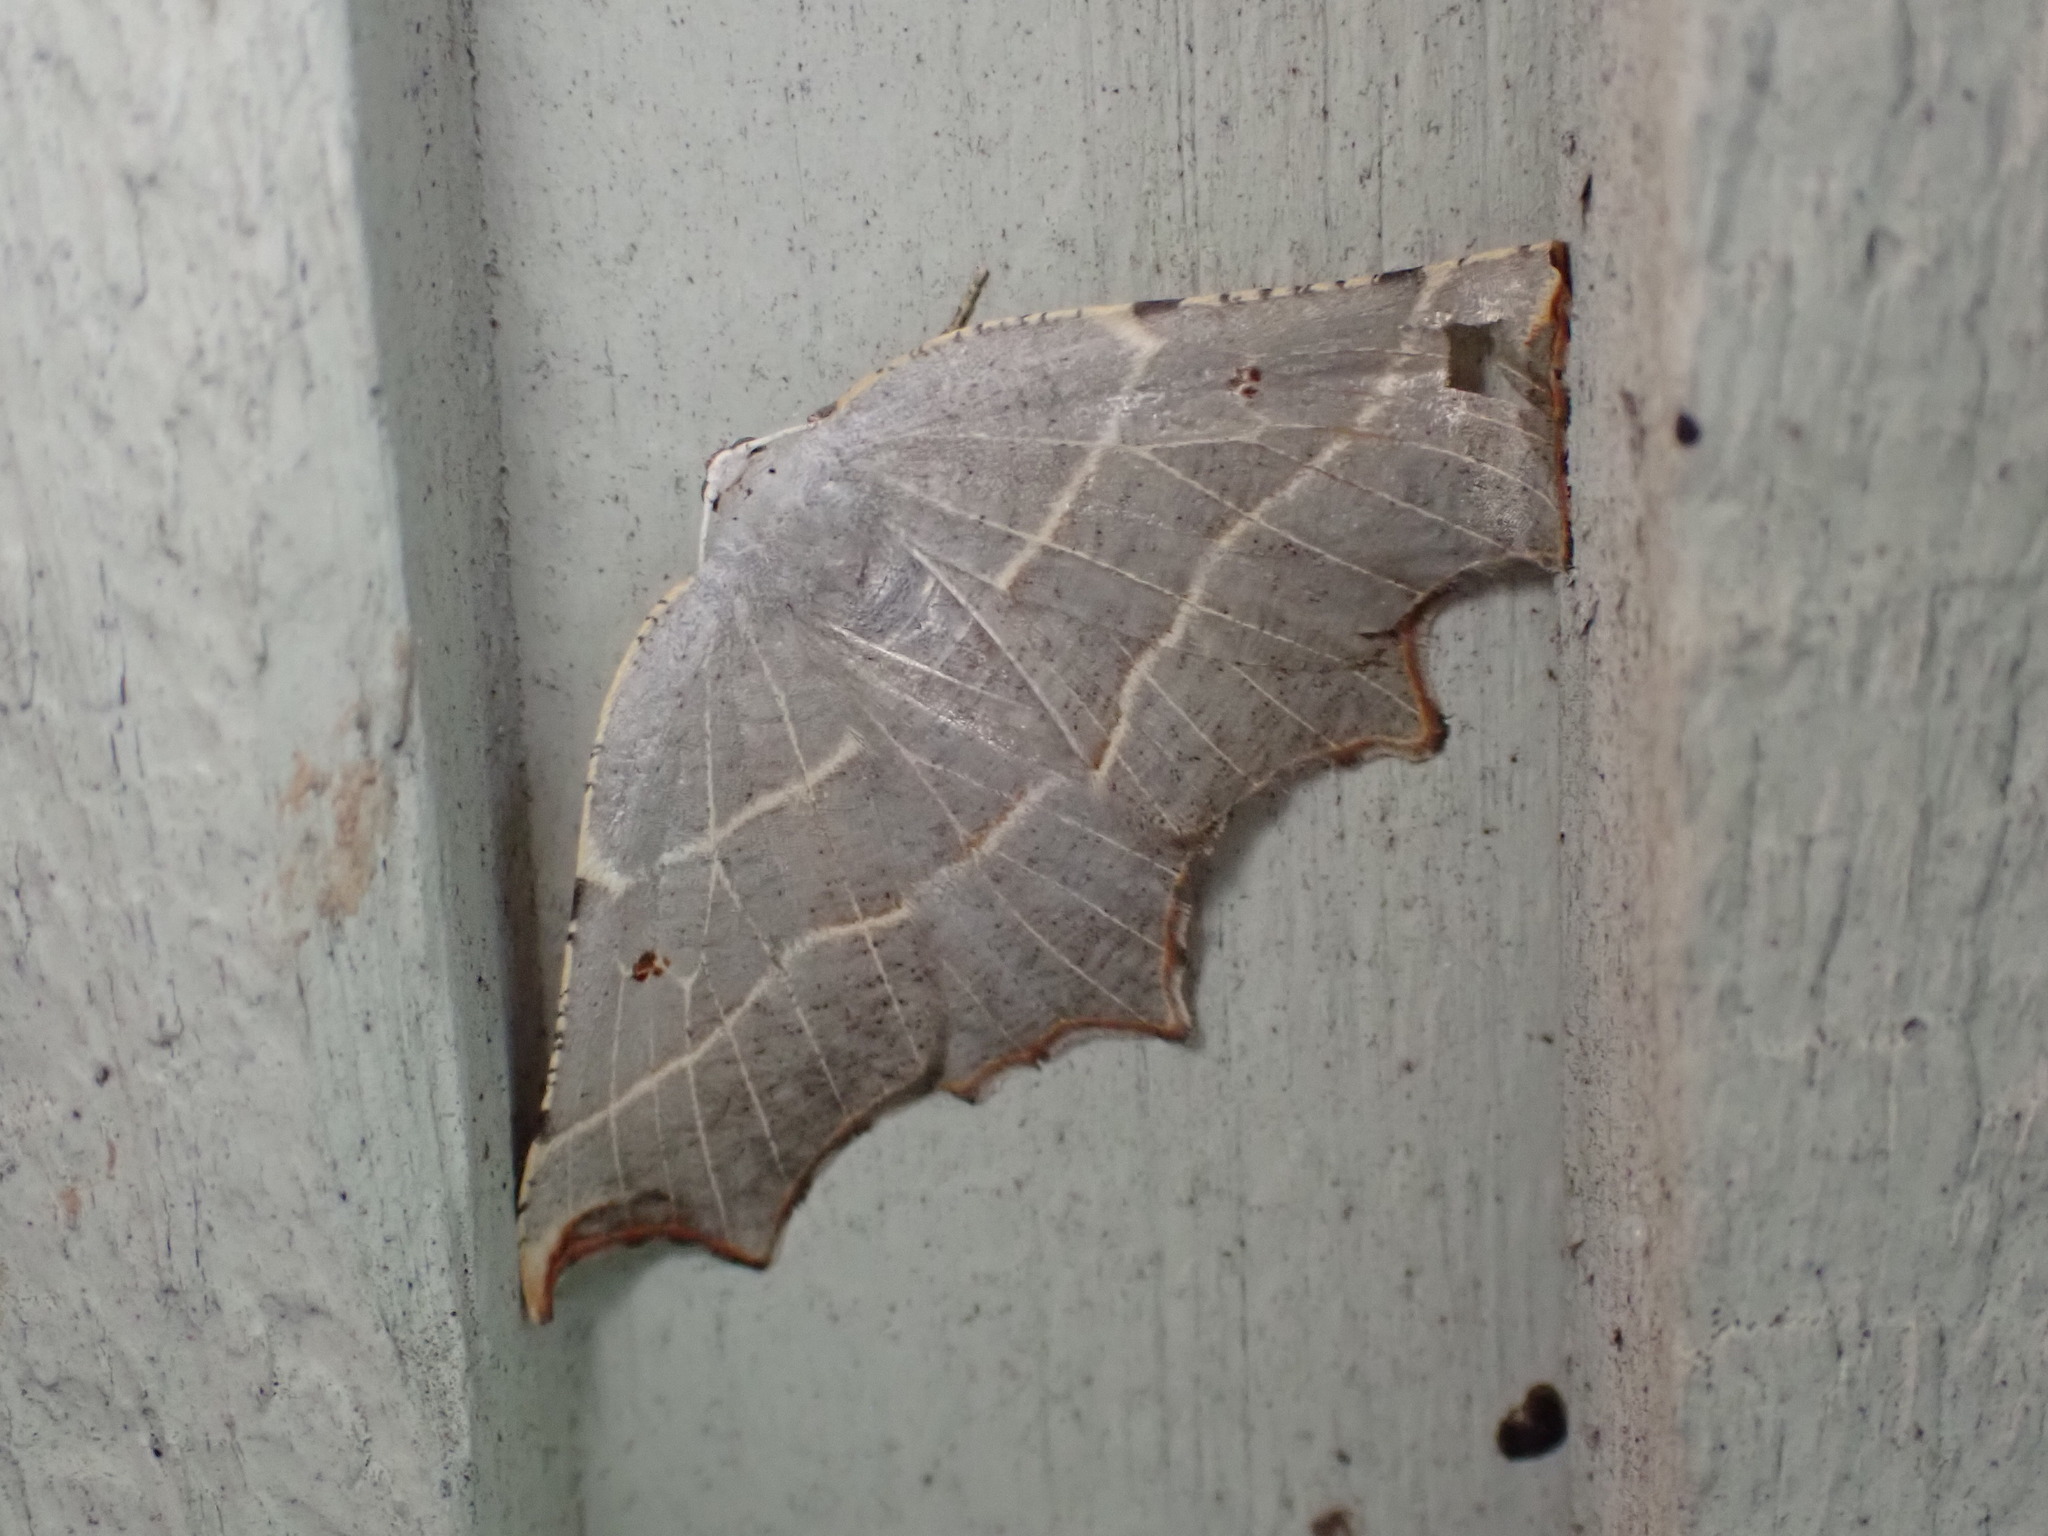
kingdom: Animalia
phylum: Arthropoda
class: Insecta
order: Lepidoptera
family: Geometridae
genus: Metanema
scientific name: Metanema inatomaria
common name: Pale metanema
